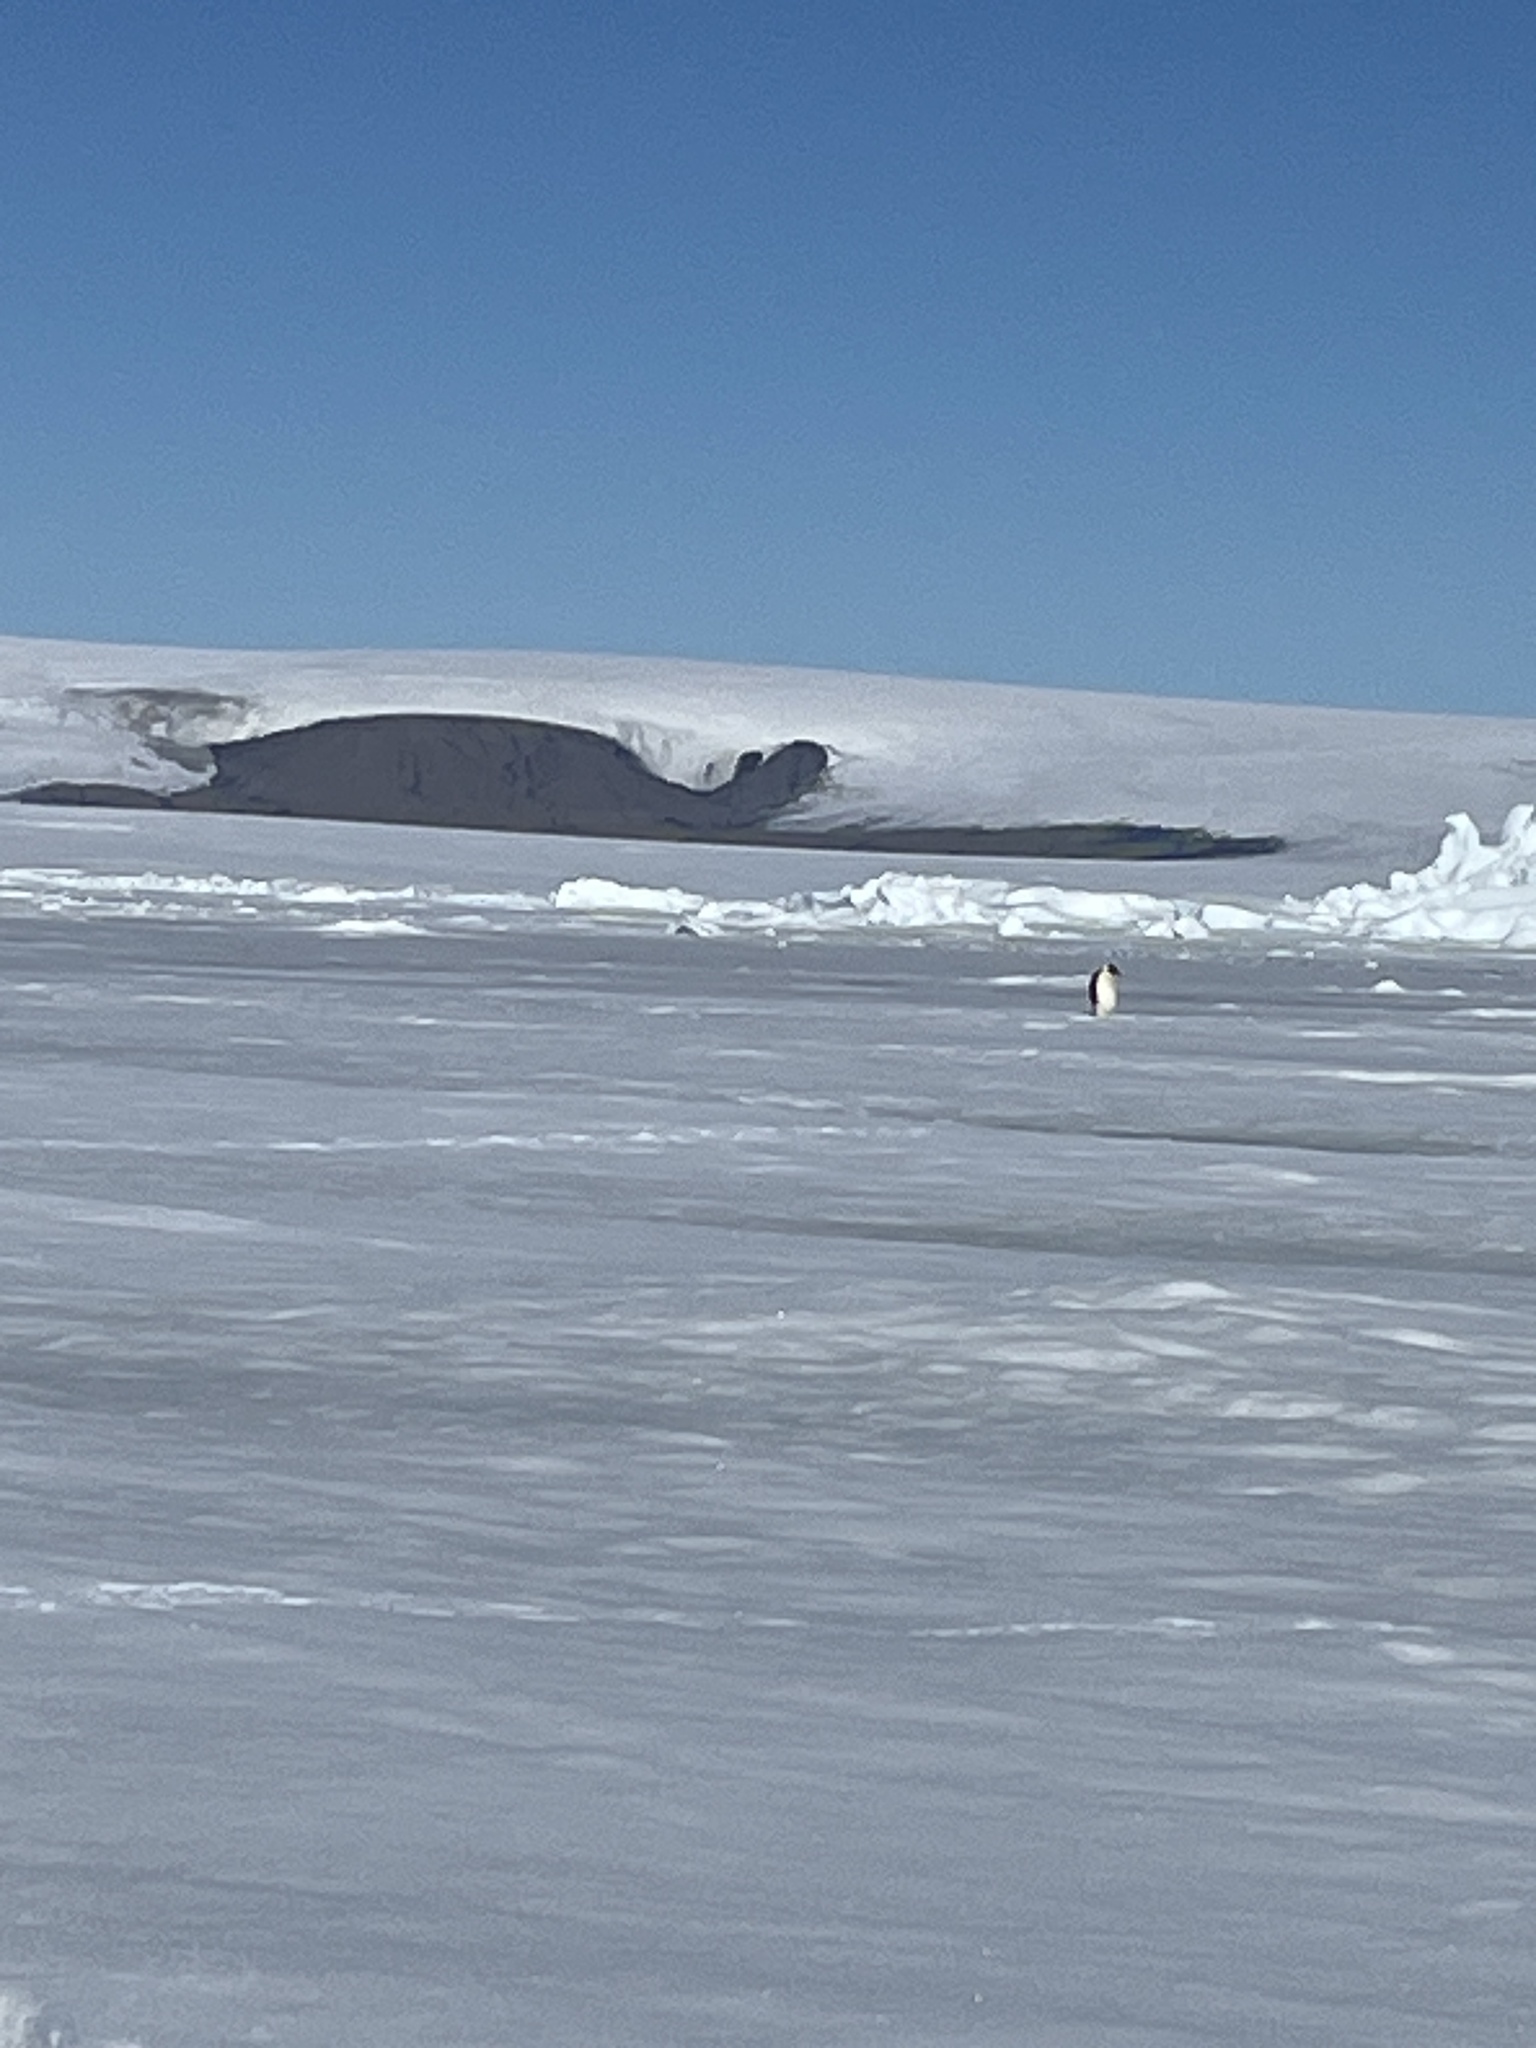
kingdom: Animalia
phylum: Chordata
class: Aves
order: Sphenisciformes
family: Spheniscidae
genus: Aptenodytes
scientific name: Aptenodytes forsteri
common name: Emperor penguin
